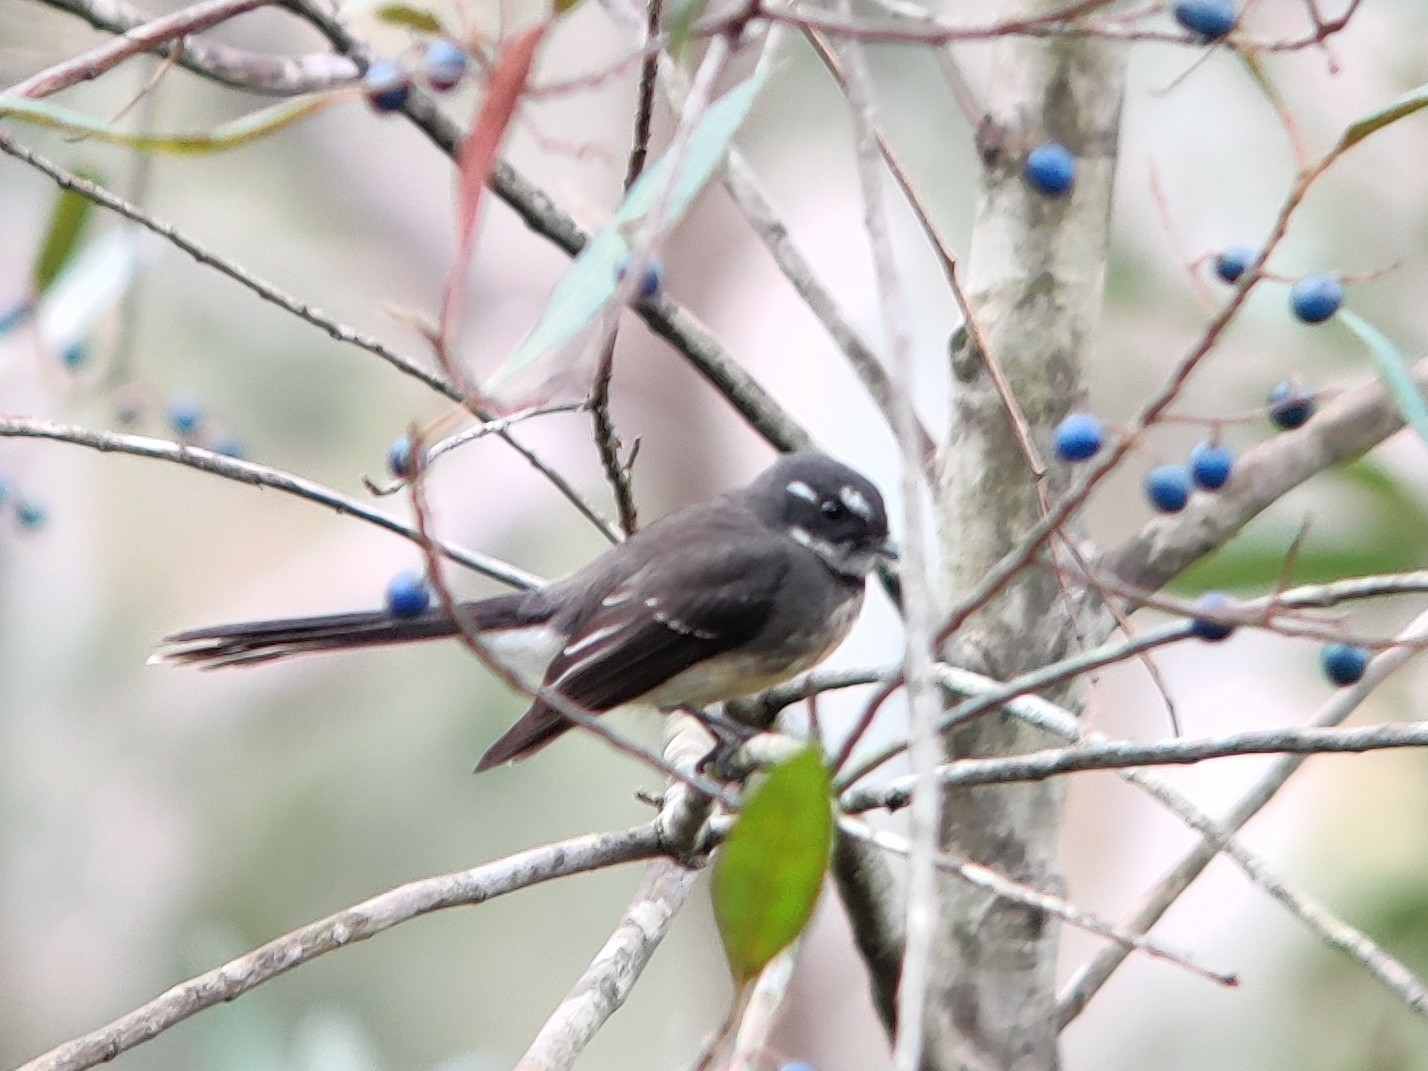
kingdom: Animalia
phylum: Chordata
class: Aves
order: Passeriformes
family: Rhipiduridae
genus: Rhipidura
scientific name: Rhipidura albiscapa
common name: Grey fantail
